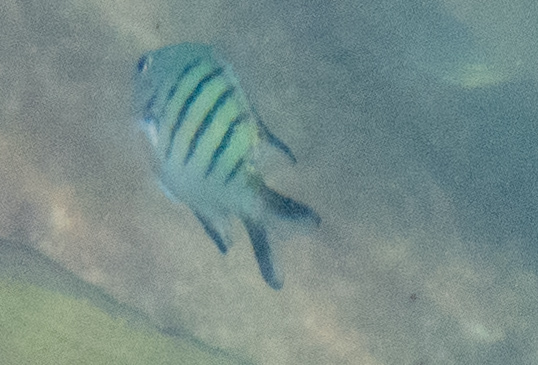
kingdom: Animalia
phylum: Chordata
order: Perciformes
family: Pomacentridae
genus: Abudefduf
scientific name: Abudefduf whitleyi
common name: Whitley's seargent
